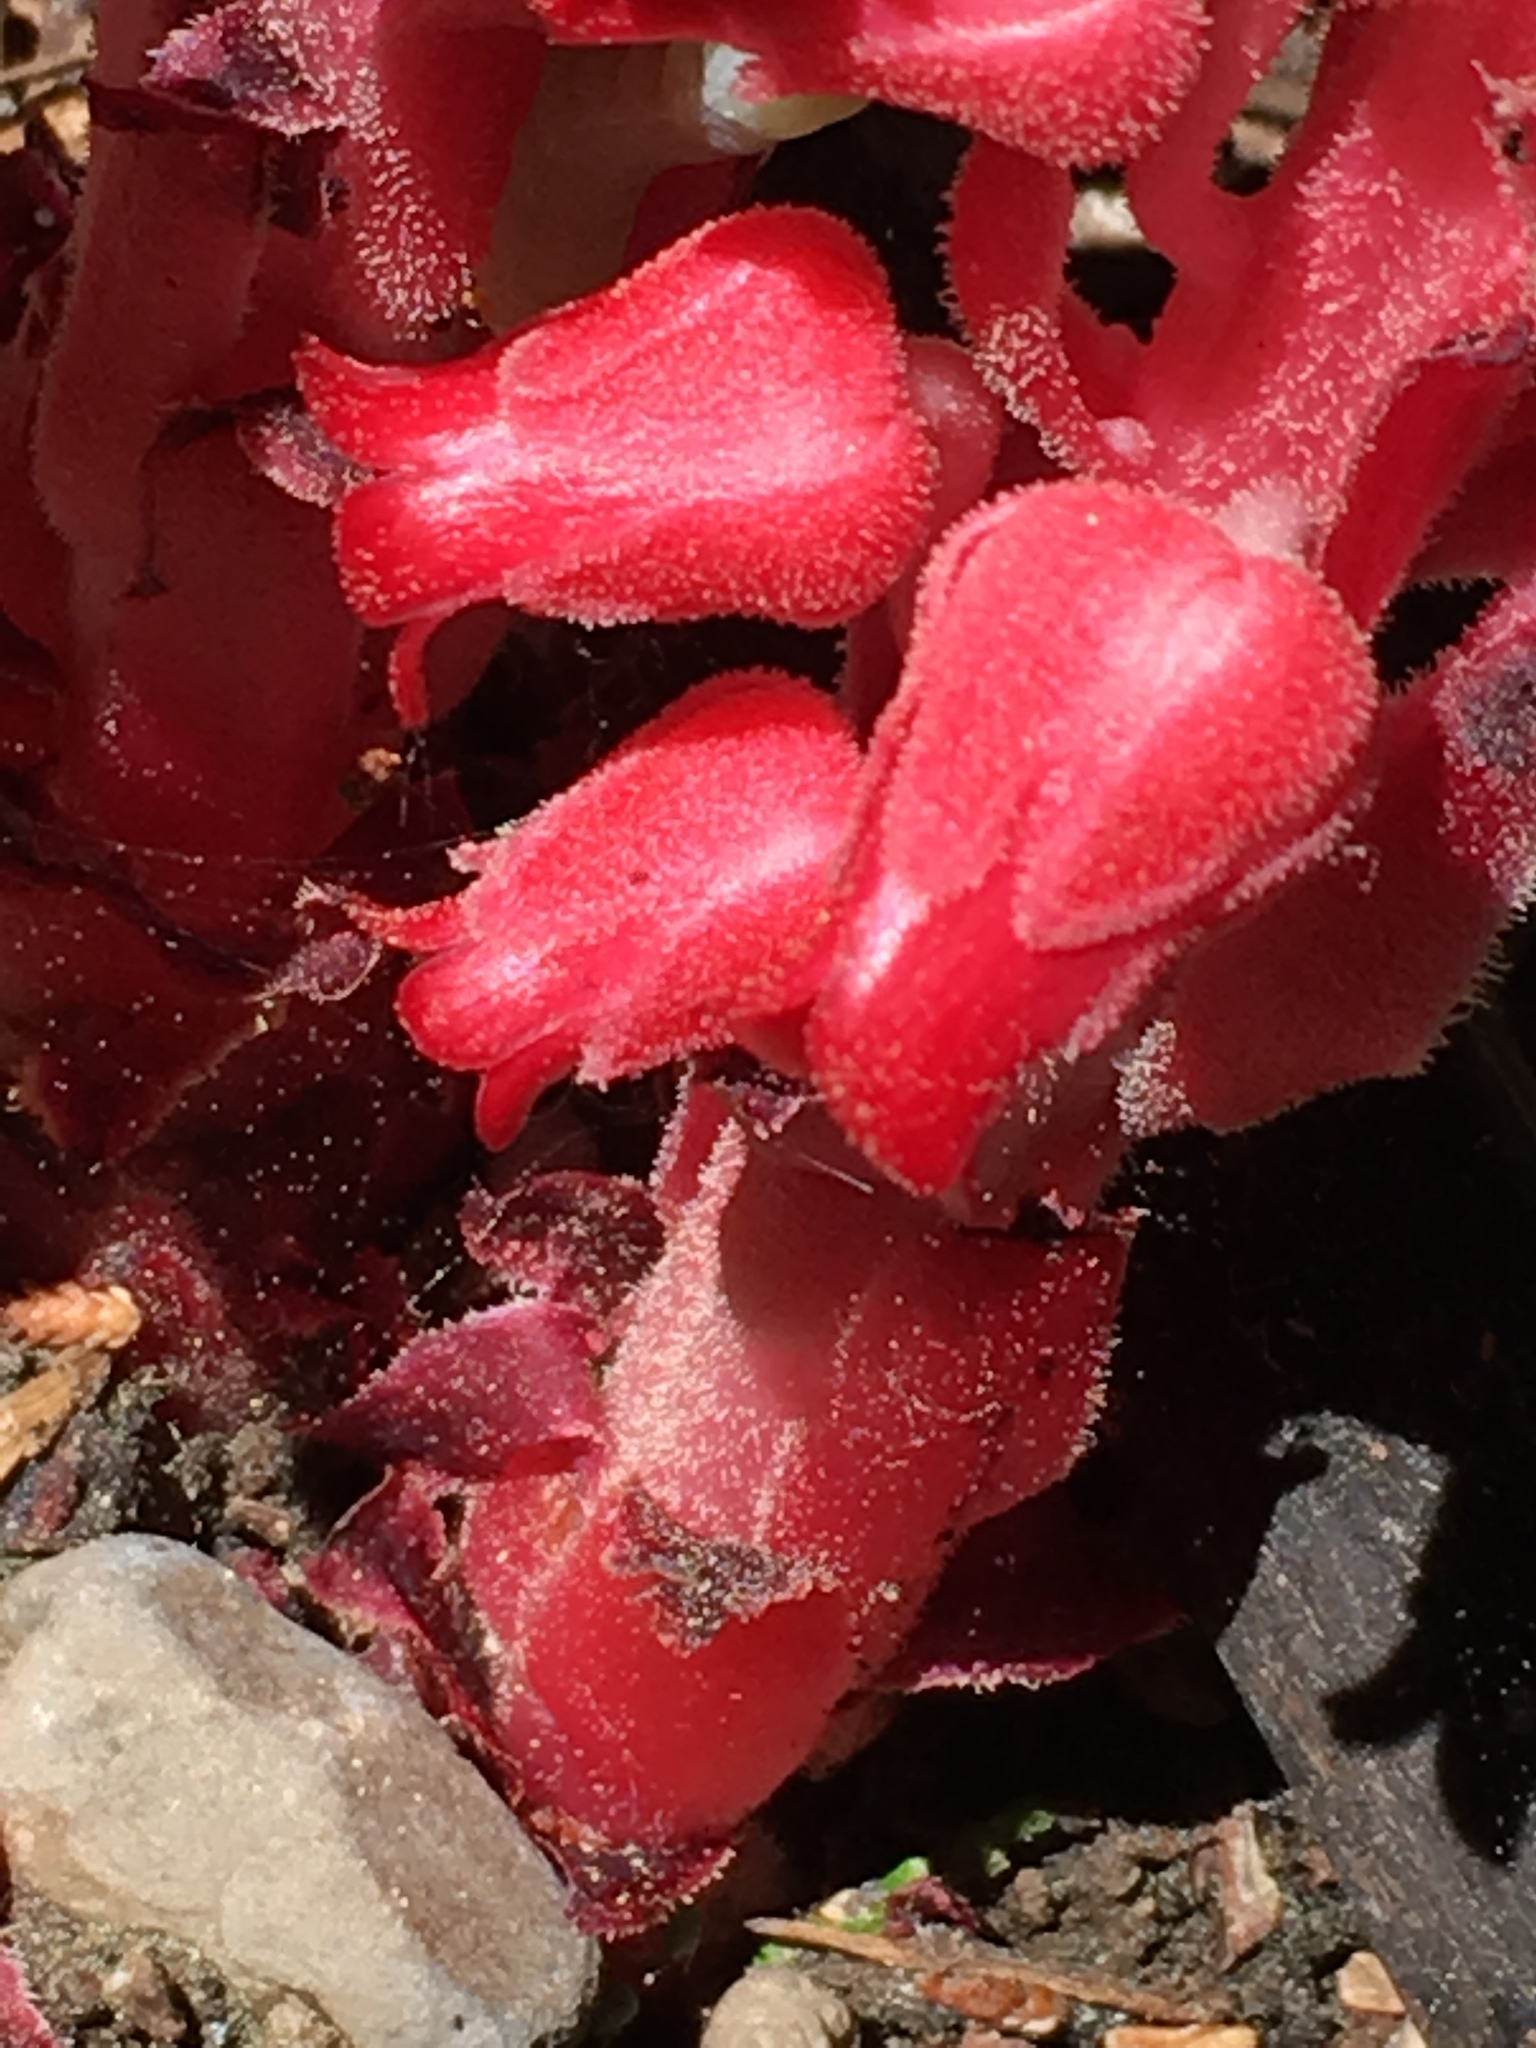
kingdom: Plantae
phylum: Tracheophyta
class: Magnoliopsida
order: Ericales
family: Ericaceae
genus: Sarcodes
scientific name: Sarcodes sanguinea
